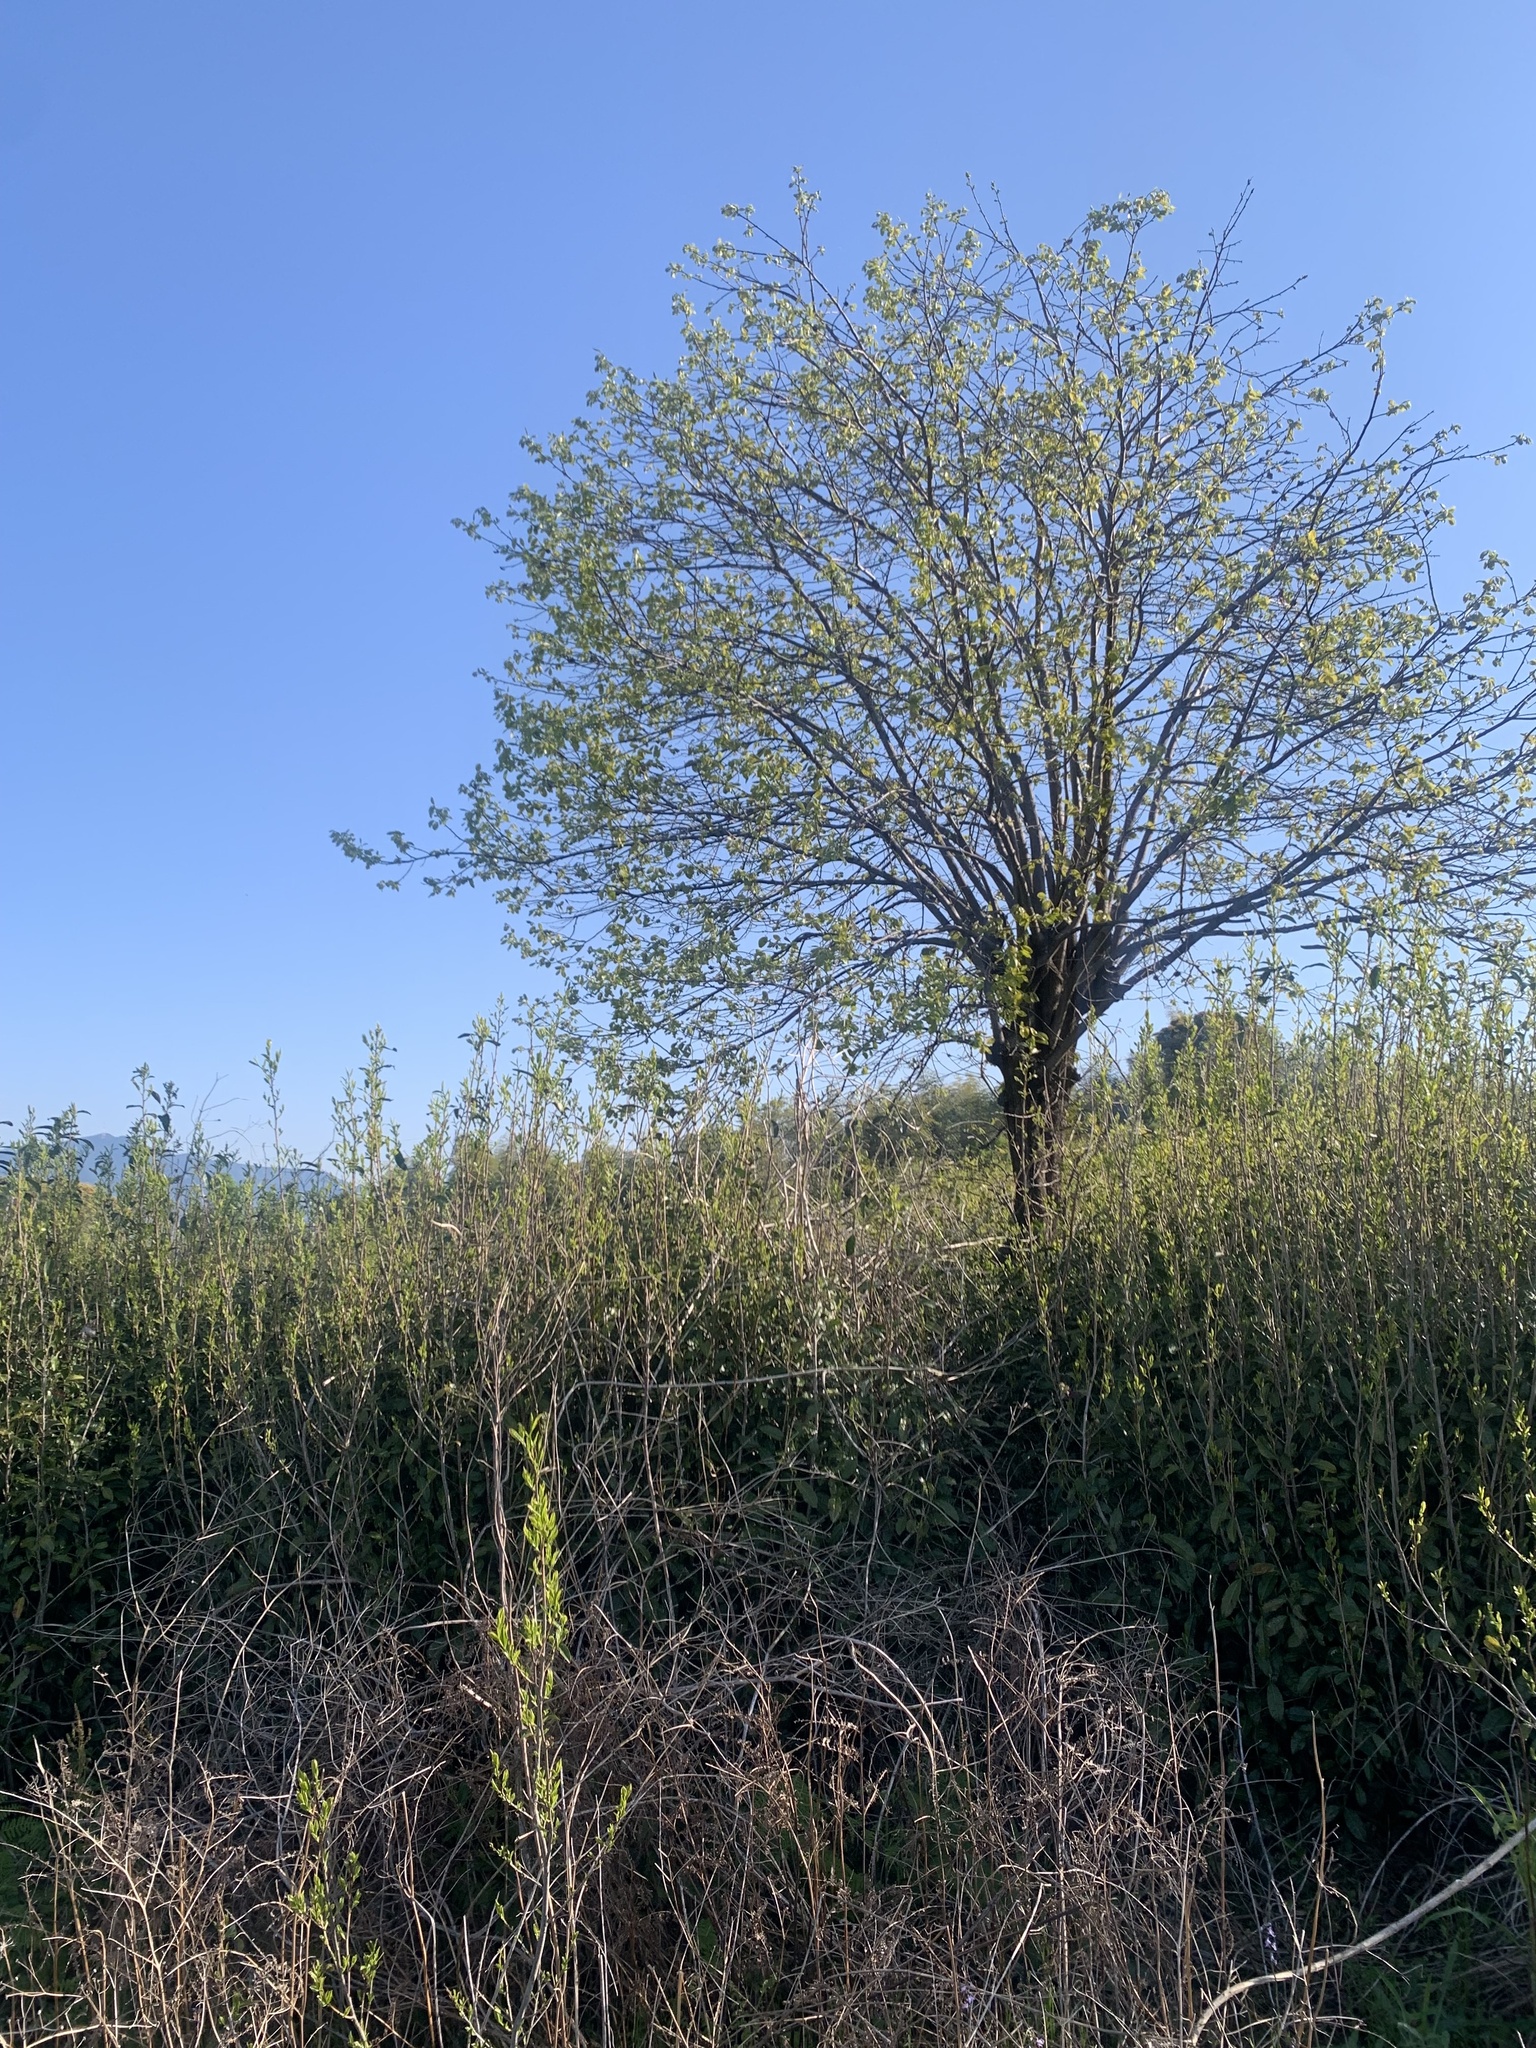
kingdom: Animalia
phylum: Chordata
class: Aves
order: Passeriformes
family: Cettiidae
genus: Horornis
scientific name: Horornis diphone
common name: Japanese bush warbler
